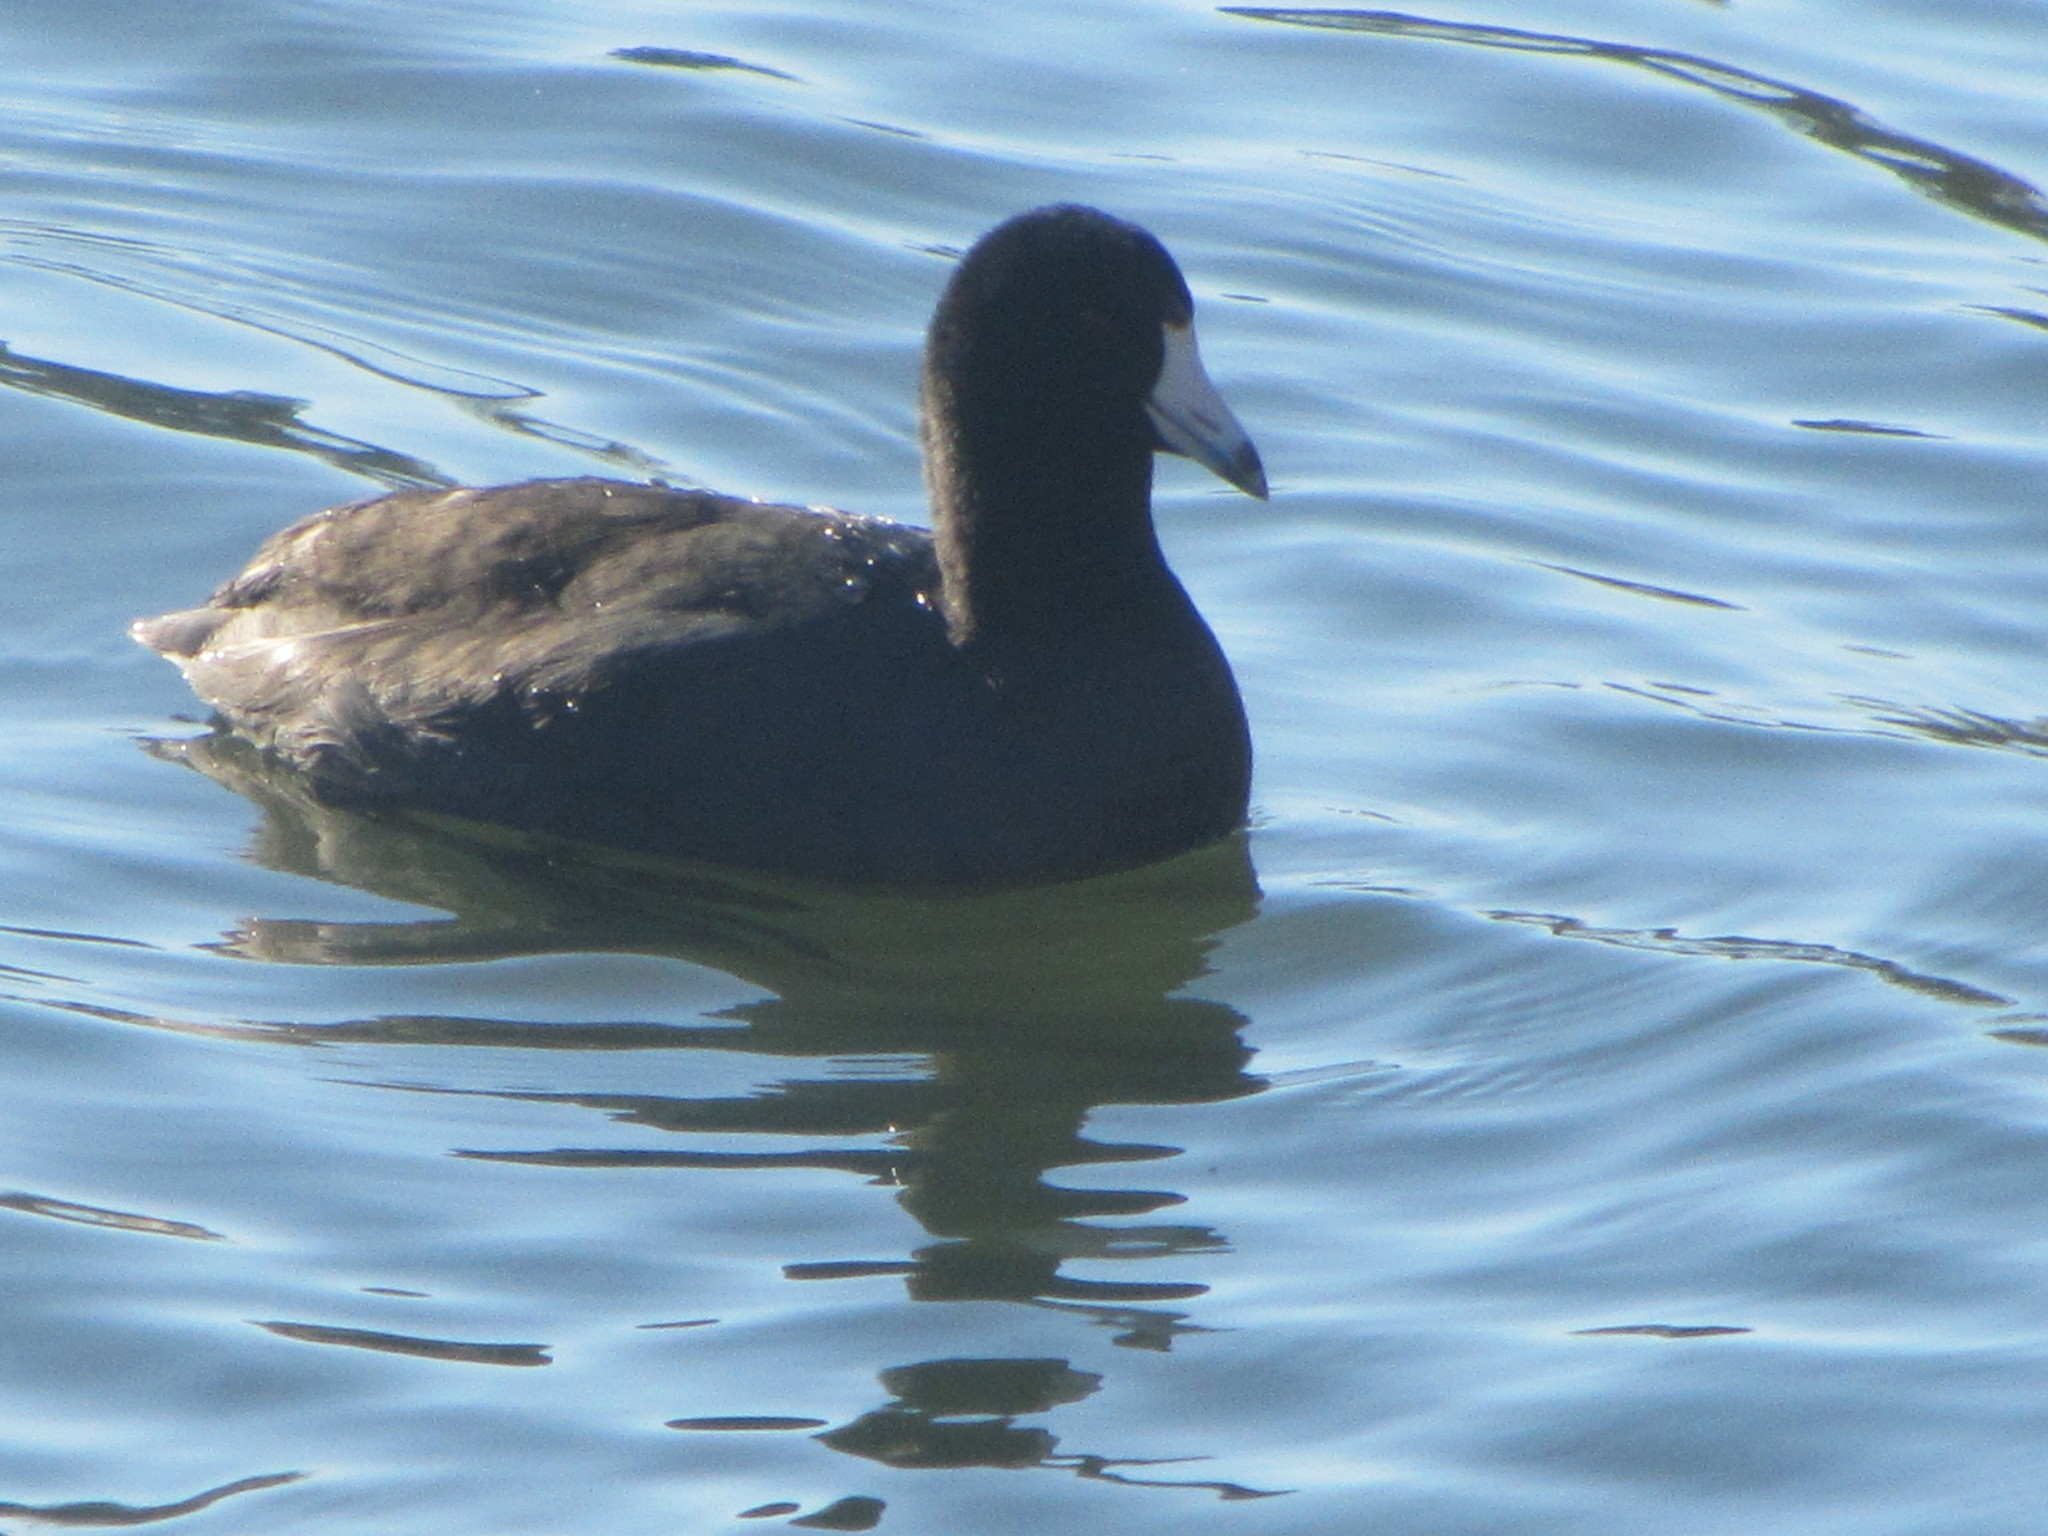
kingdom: Animalia
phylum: Chordata
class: Aves
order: Gruiformes
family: Rallidae
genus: Fulica
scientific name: Fulica americana
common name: American coot
